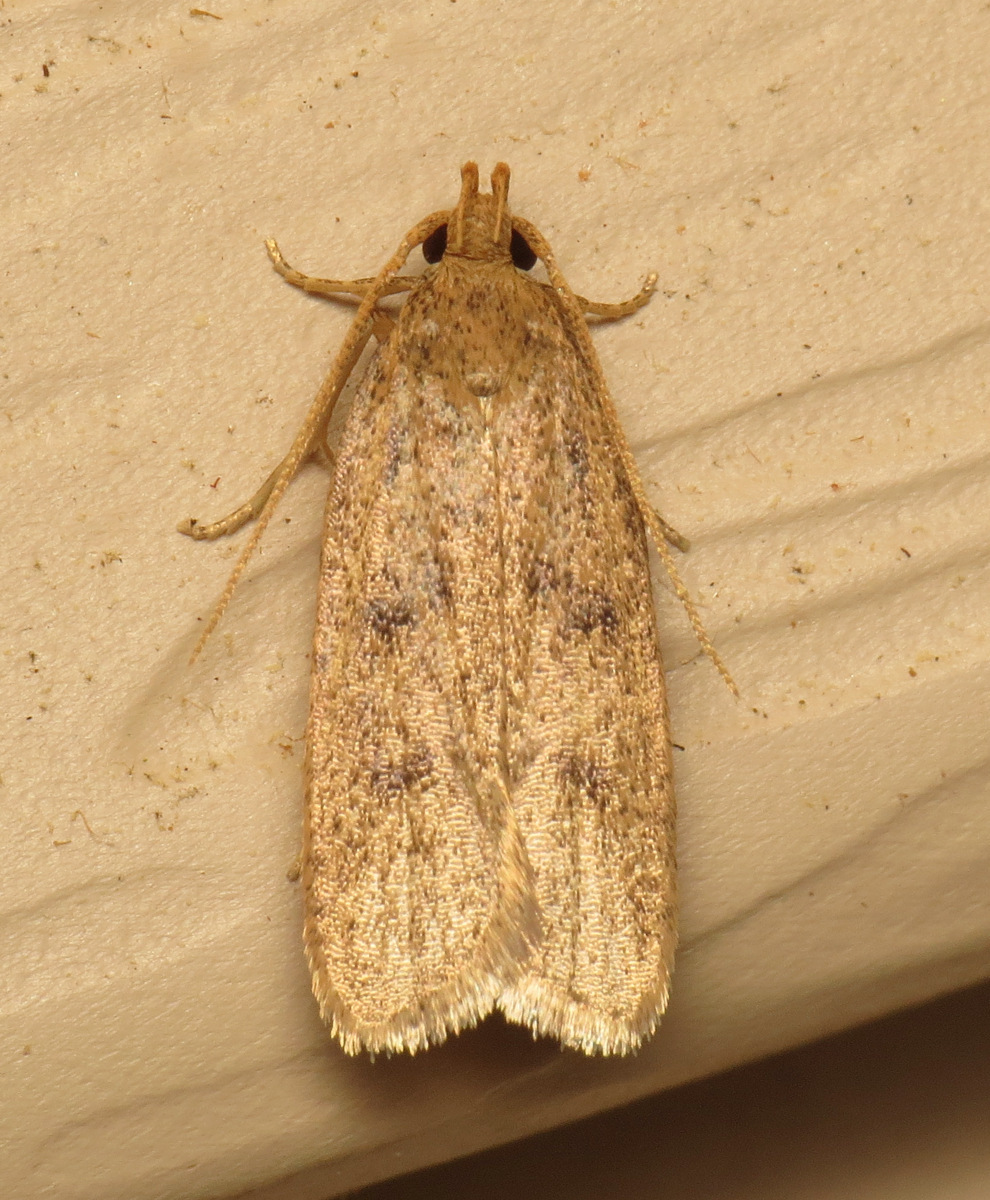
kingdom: Animalia
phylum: Arthropoda
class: Insecta
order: Lepidoptera
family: Autostichidae
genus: Glyphidocera
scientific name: Glyphidocera septentrionella
